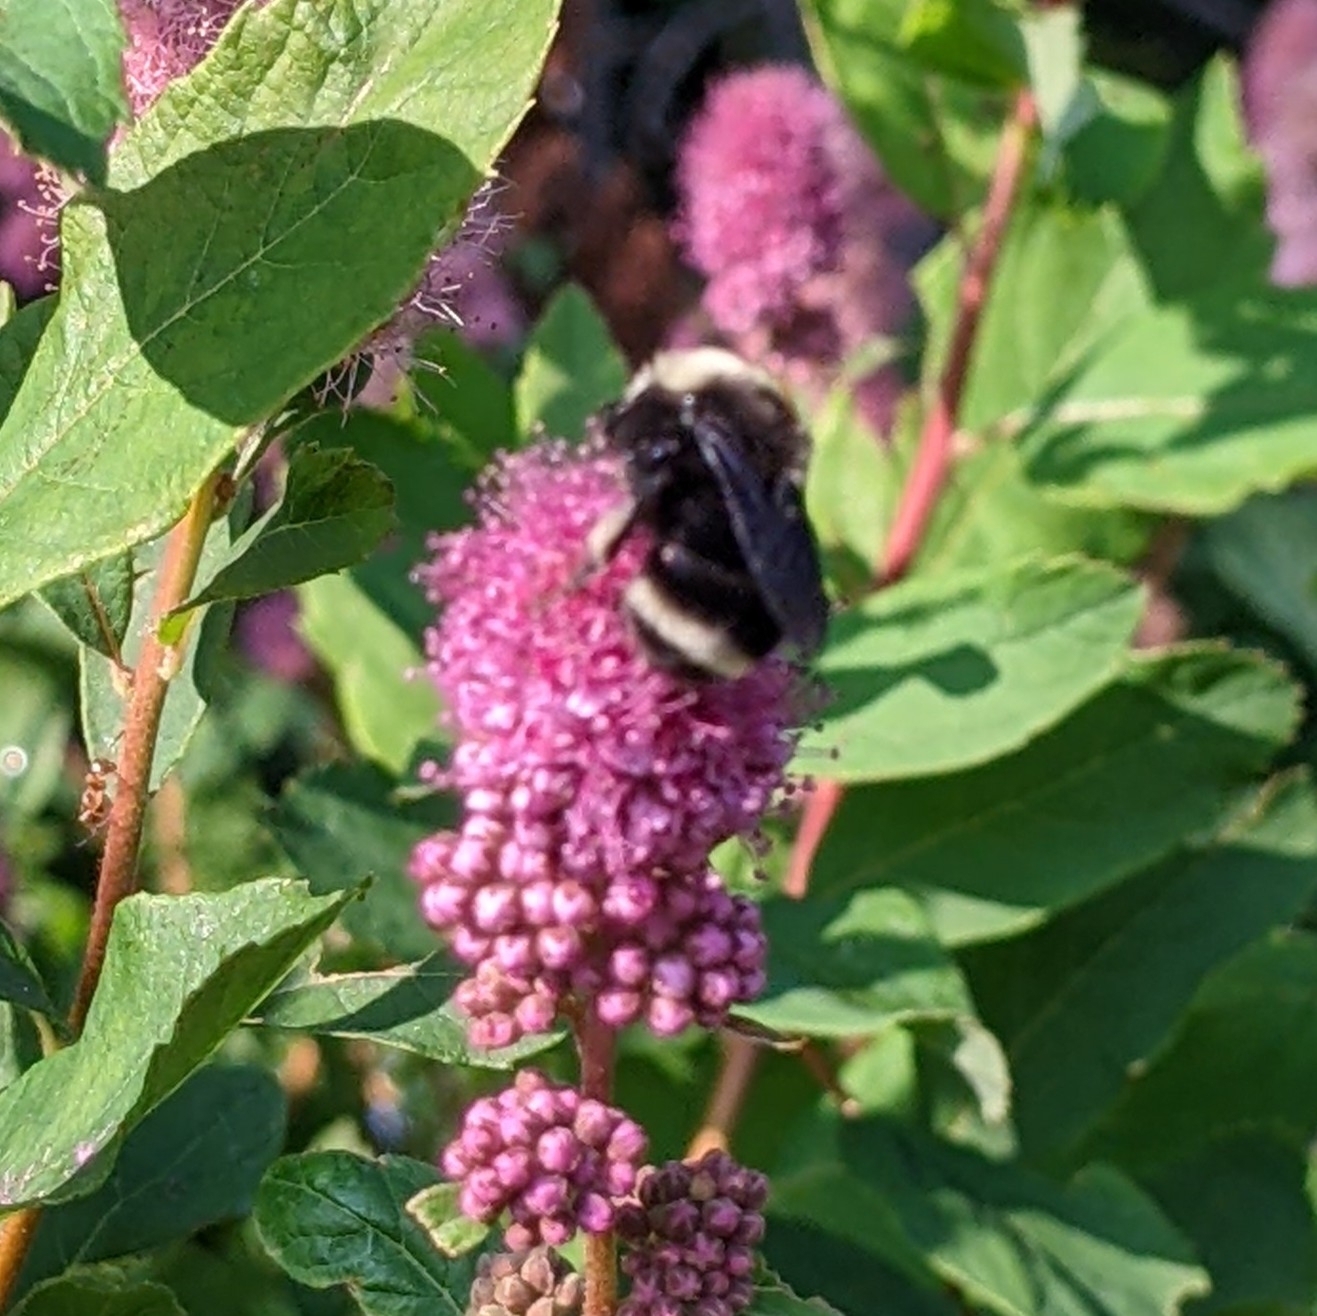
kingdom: Animalia
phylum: Arthropoda
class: Insecta
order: Hymenoptera
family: Apidae
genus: Bombus
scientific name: Bombus vosnesenskii
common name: Vosnesensky bumble bee
